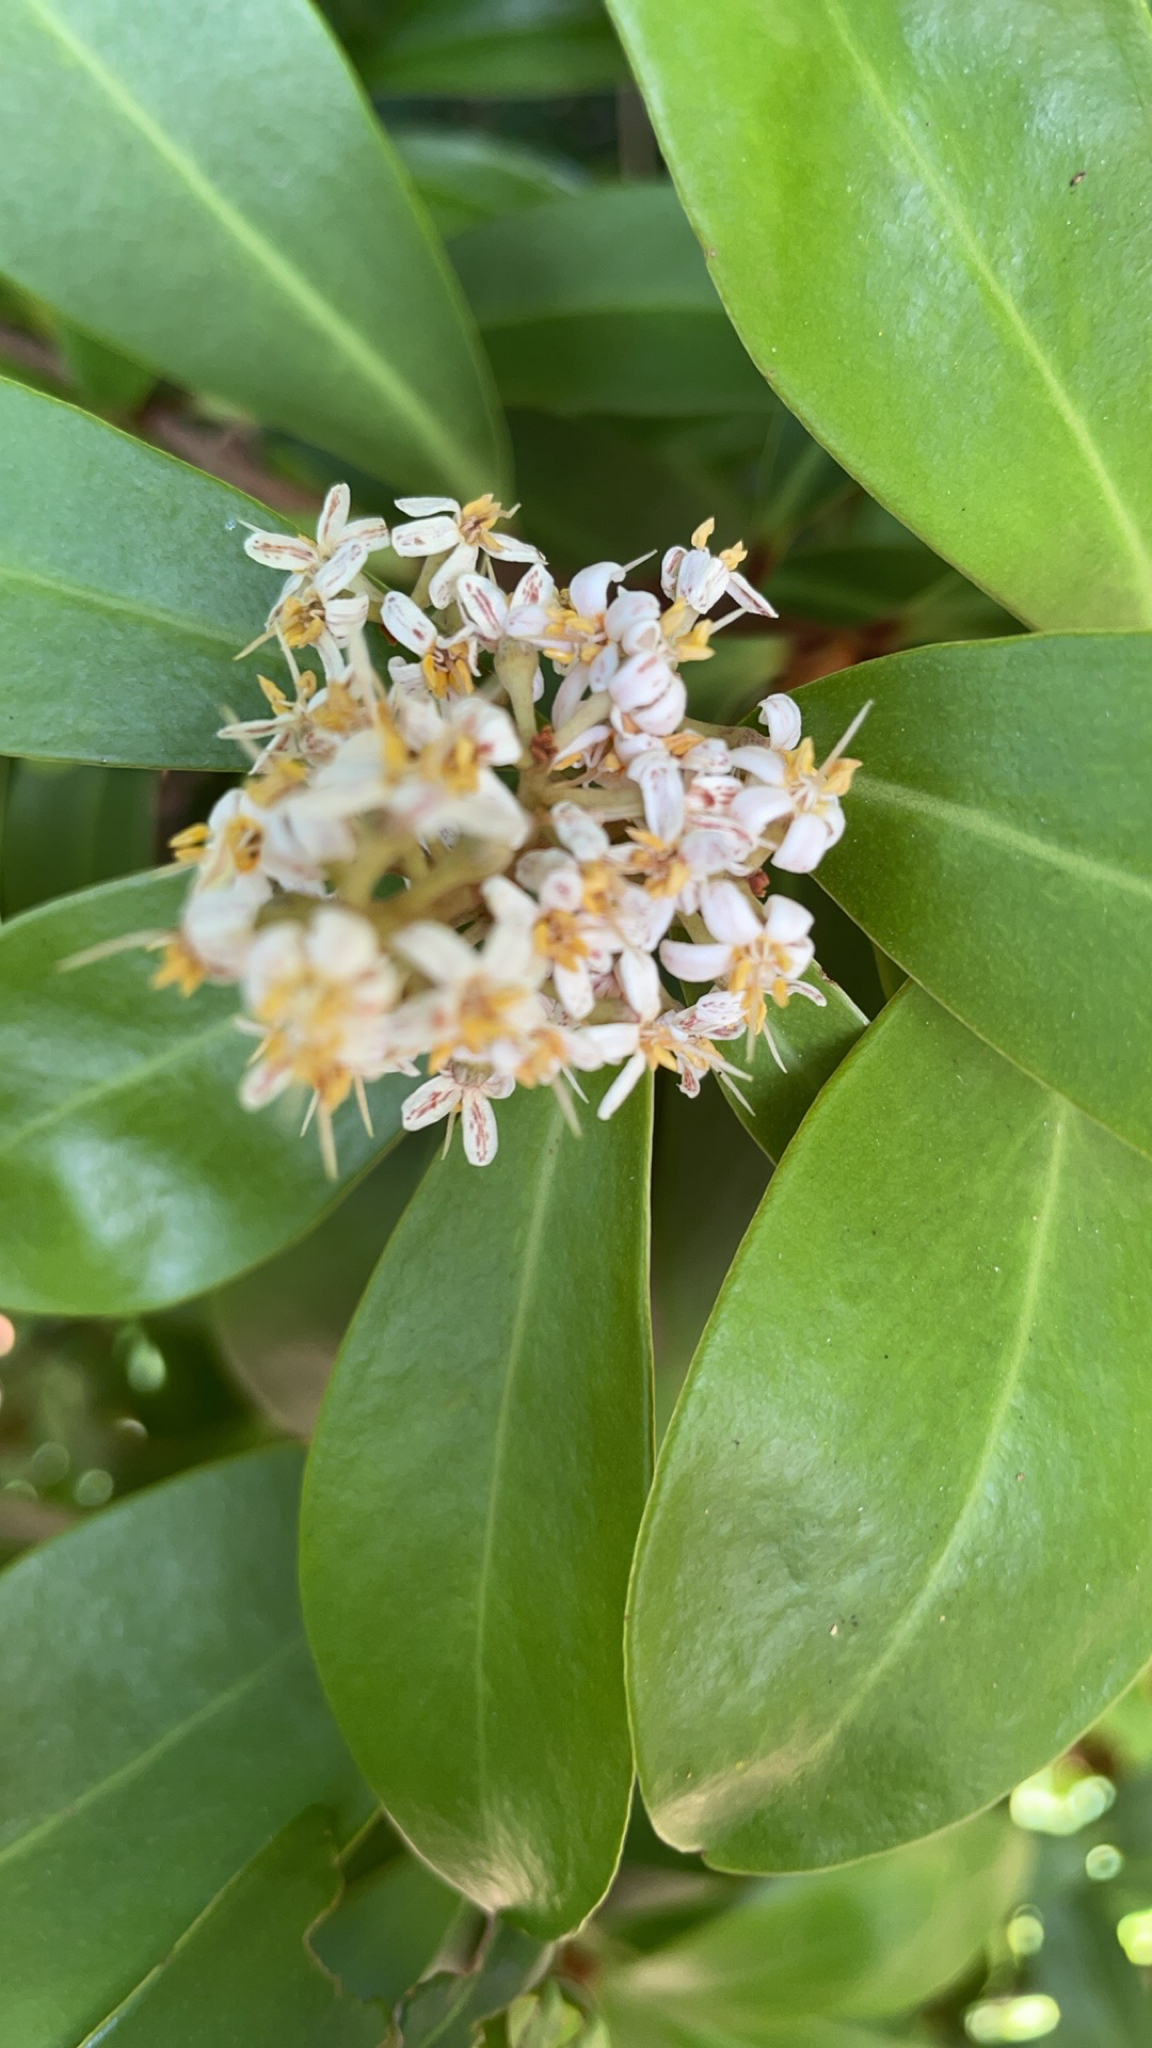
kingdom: Plantae
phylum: Tracheophyta
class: Magnoliopsida
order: Ericales
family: Primulaceae
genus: Ardisia
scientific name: Ardisia escallonioides
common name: Island marlberry
